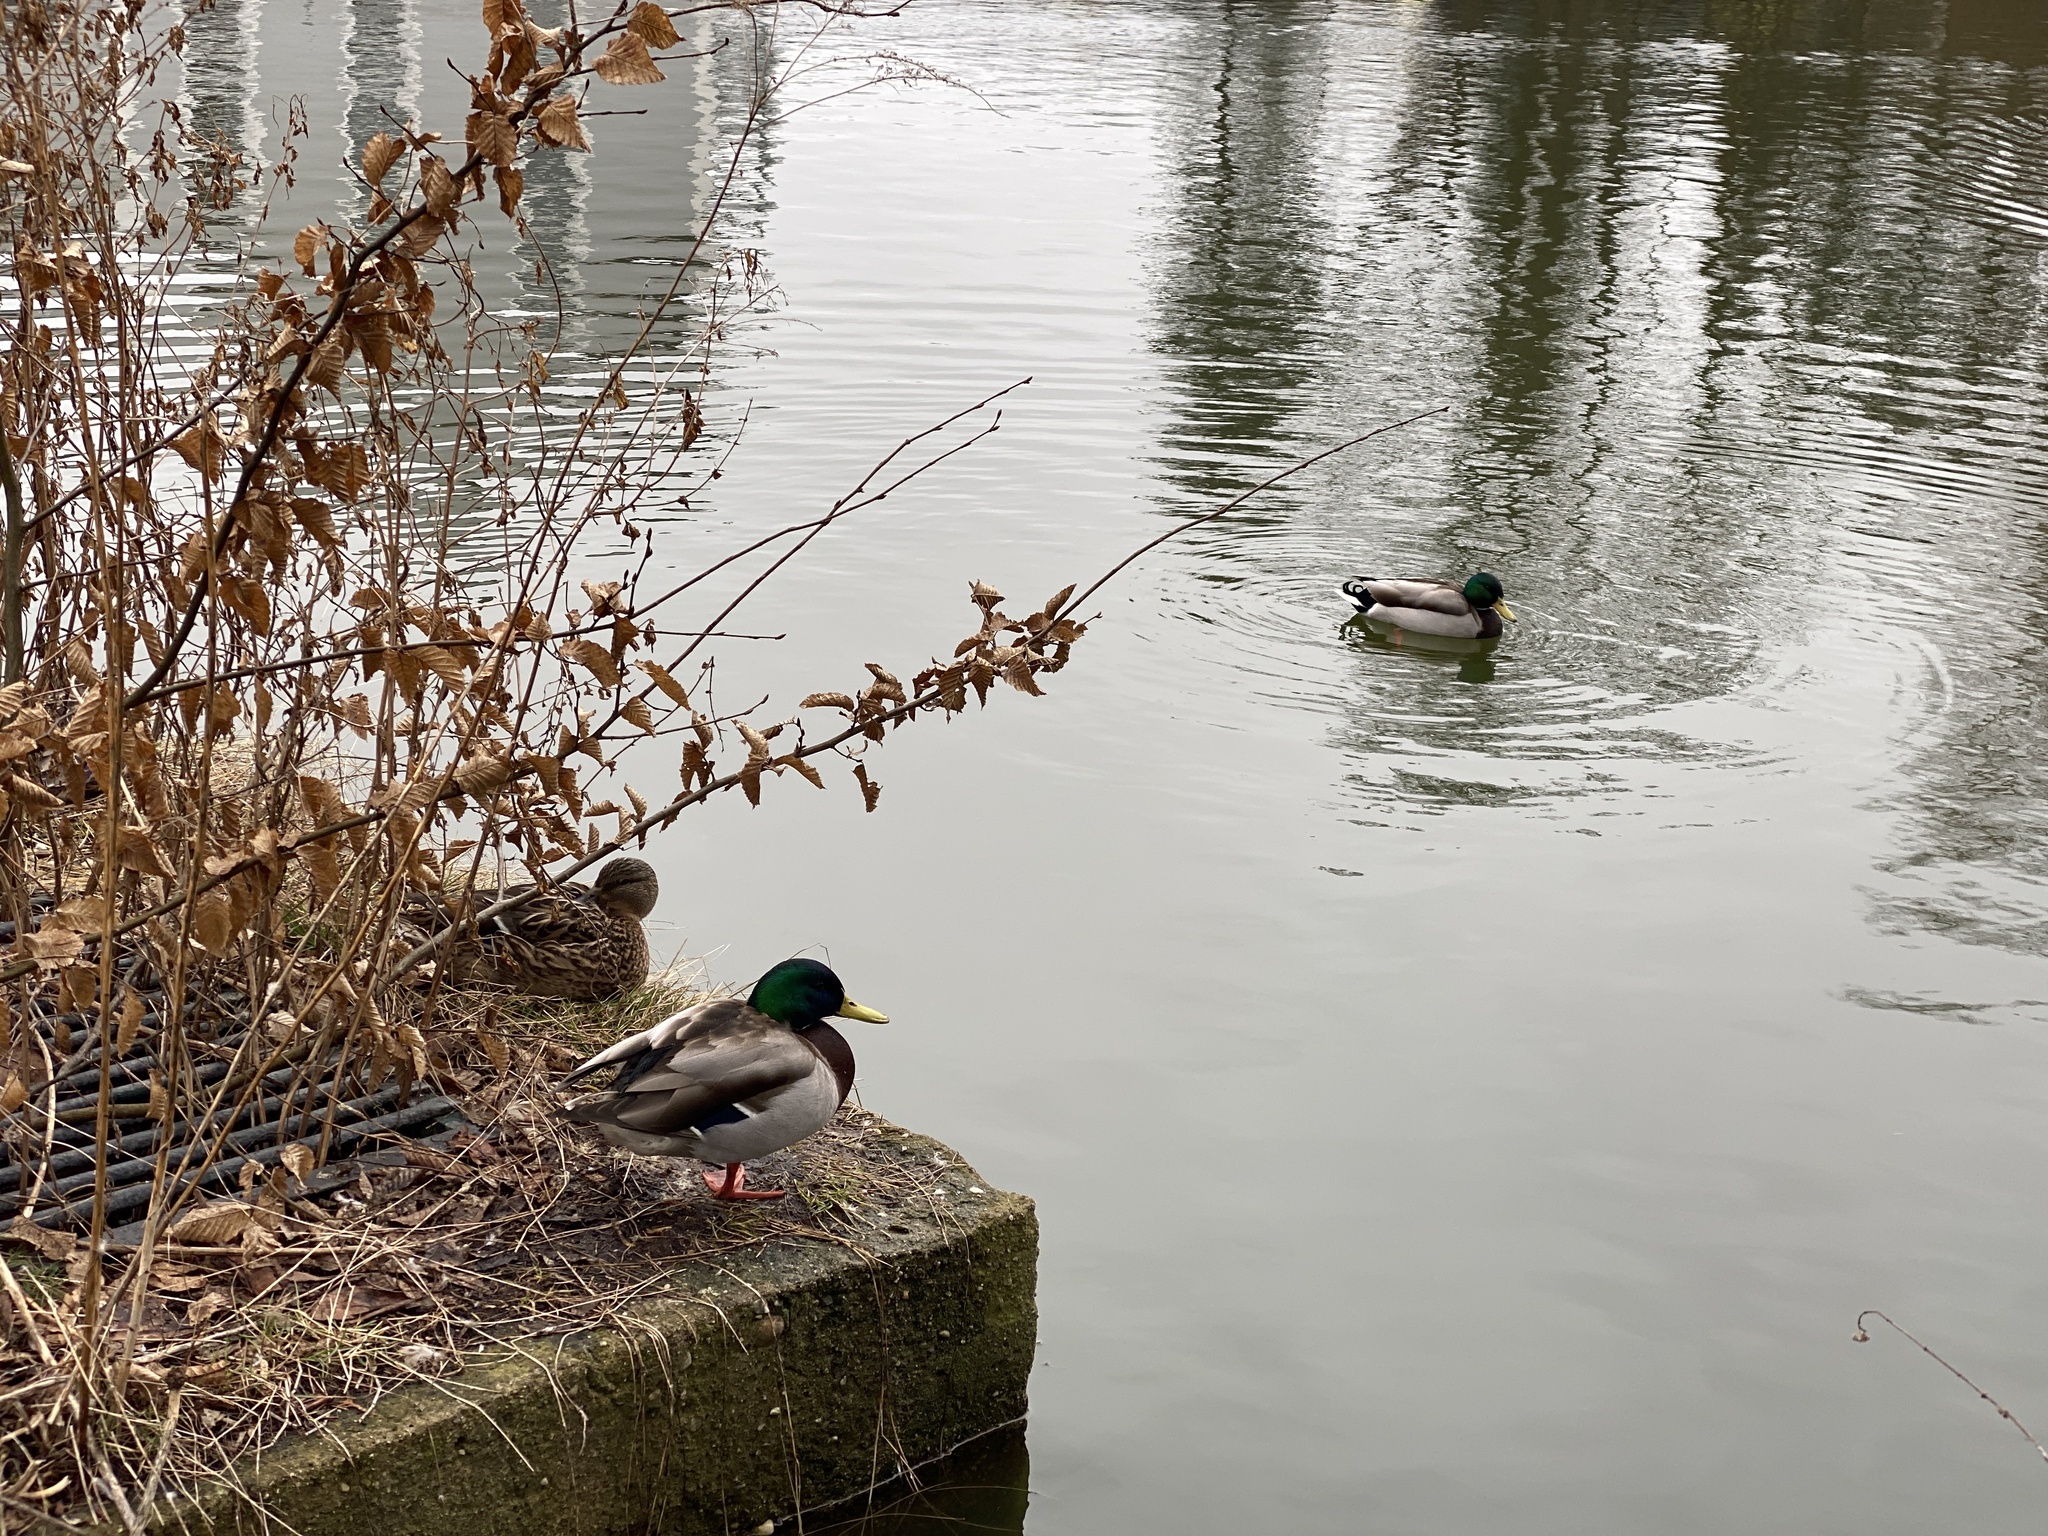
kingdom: Animalia
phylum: Chordata
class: Aves
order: Anseriformes
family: Anatidae
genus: Anas
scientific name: Anas platyrhynchos
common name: Mallard
